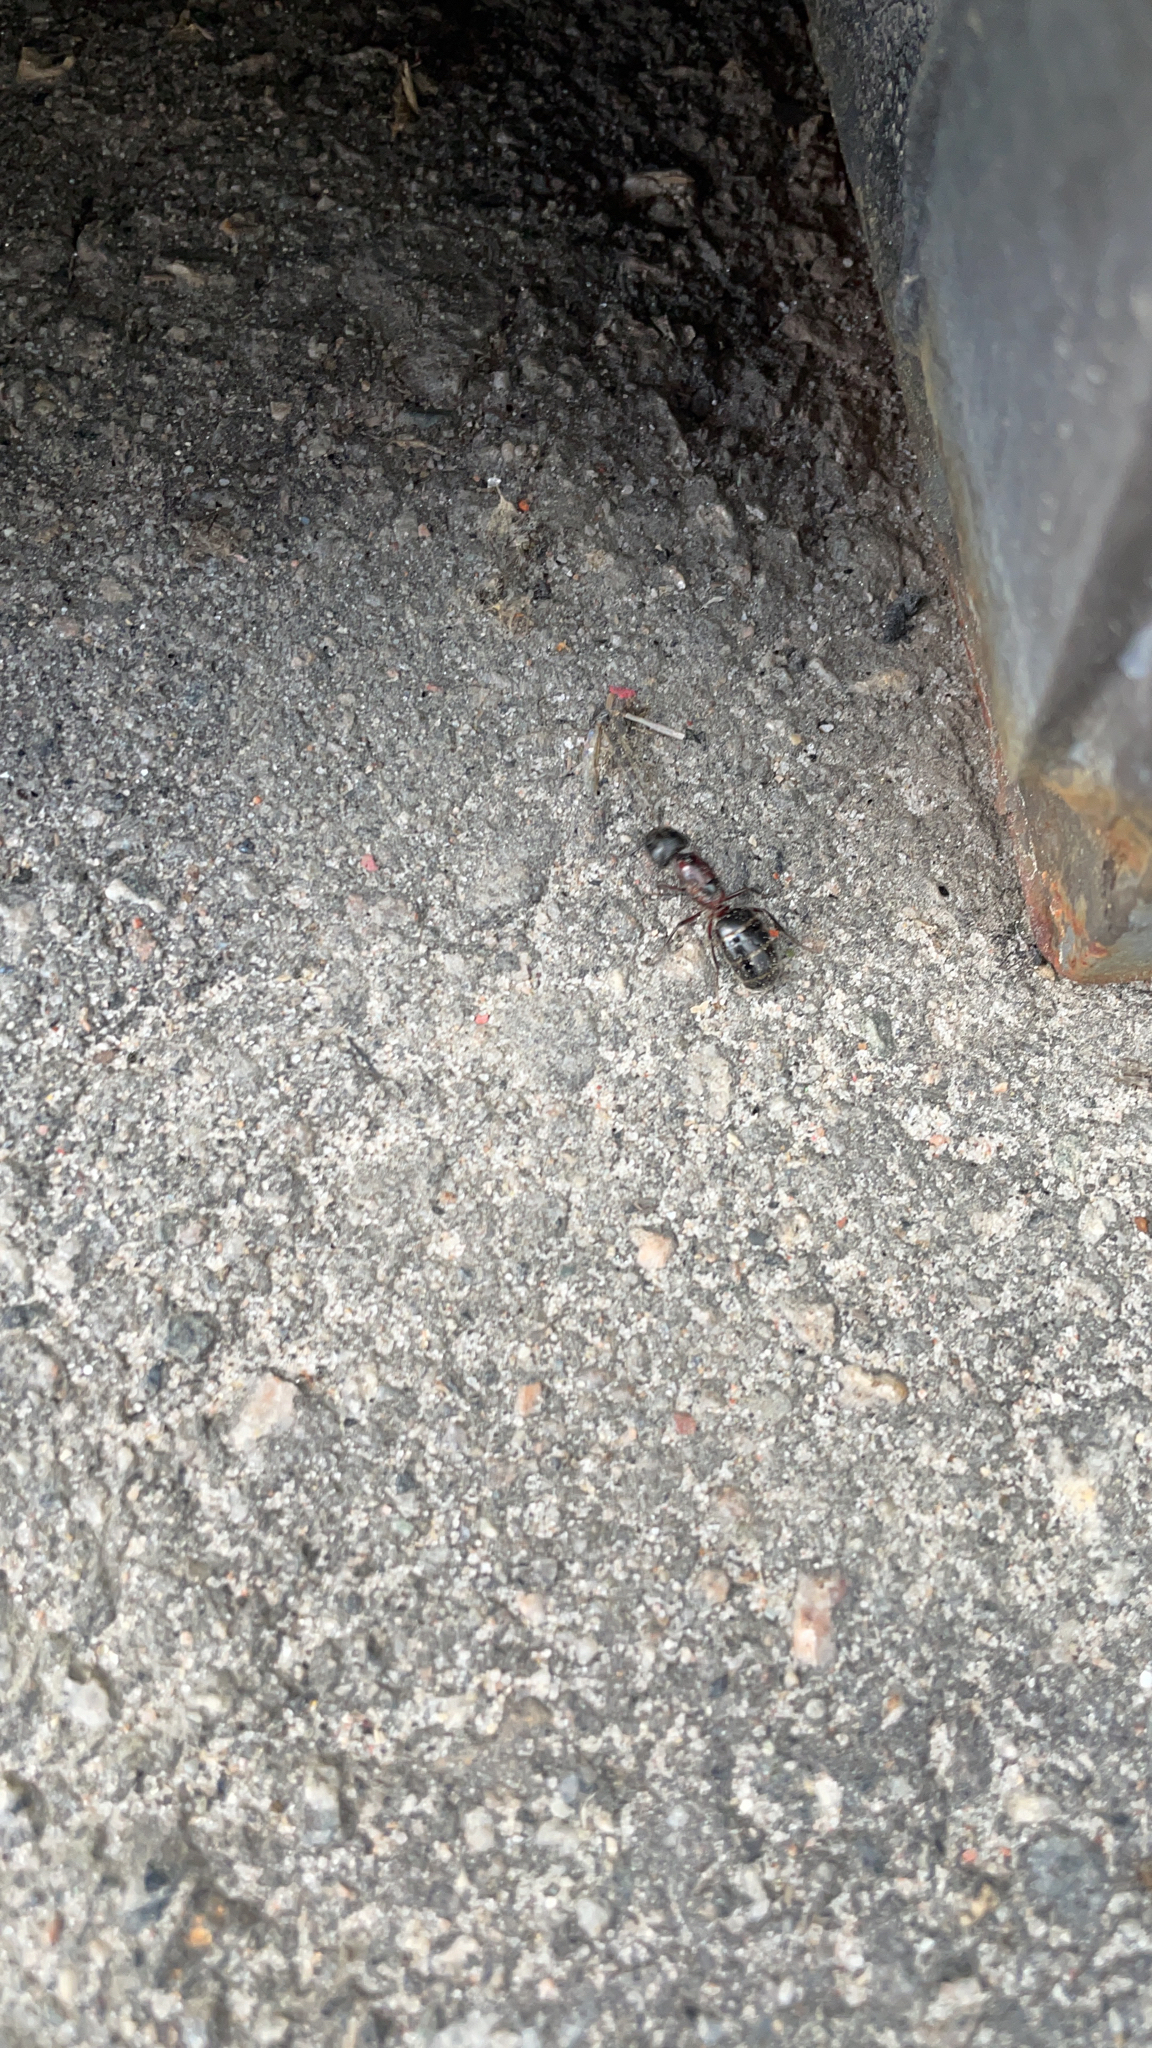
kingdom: Animalia
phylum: Arthropoda
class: Insecta
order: Hymenoptera
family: Formicidae
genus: Camponotus
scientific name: Camponotus novaeboracensis
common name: New york carpenter ant
